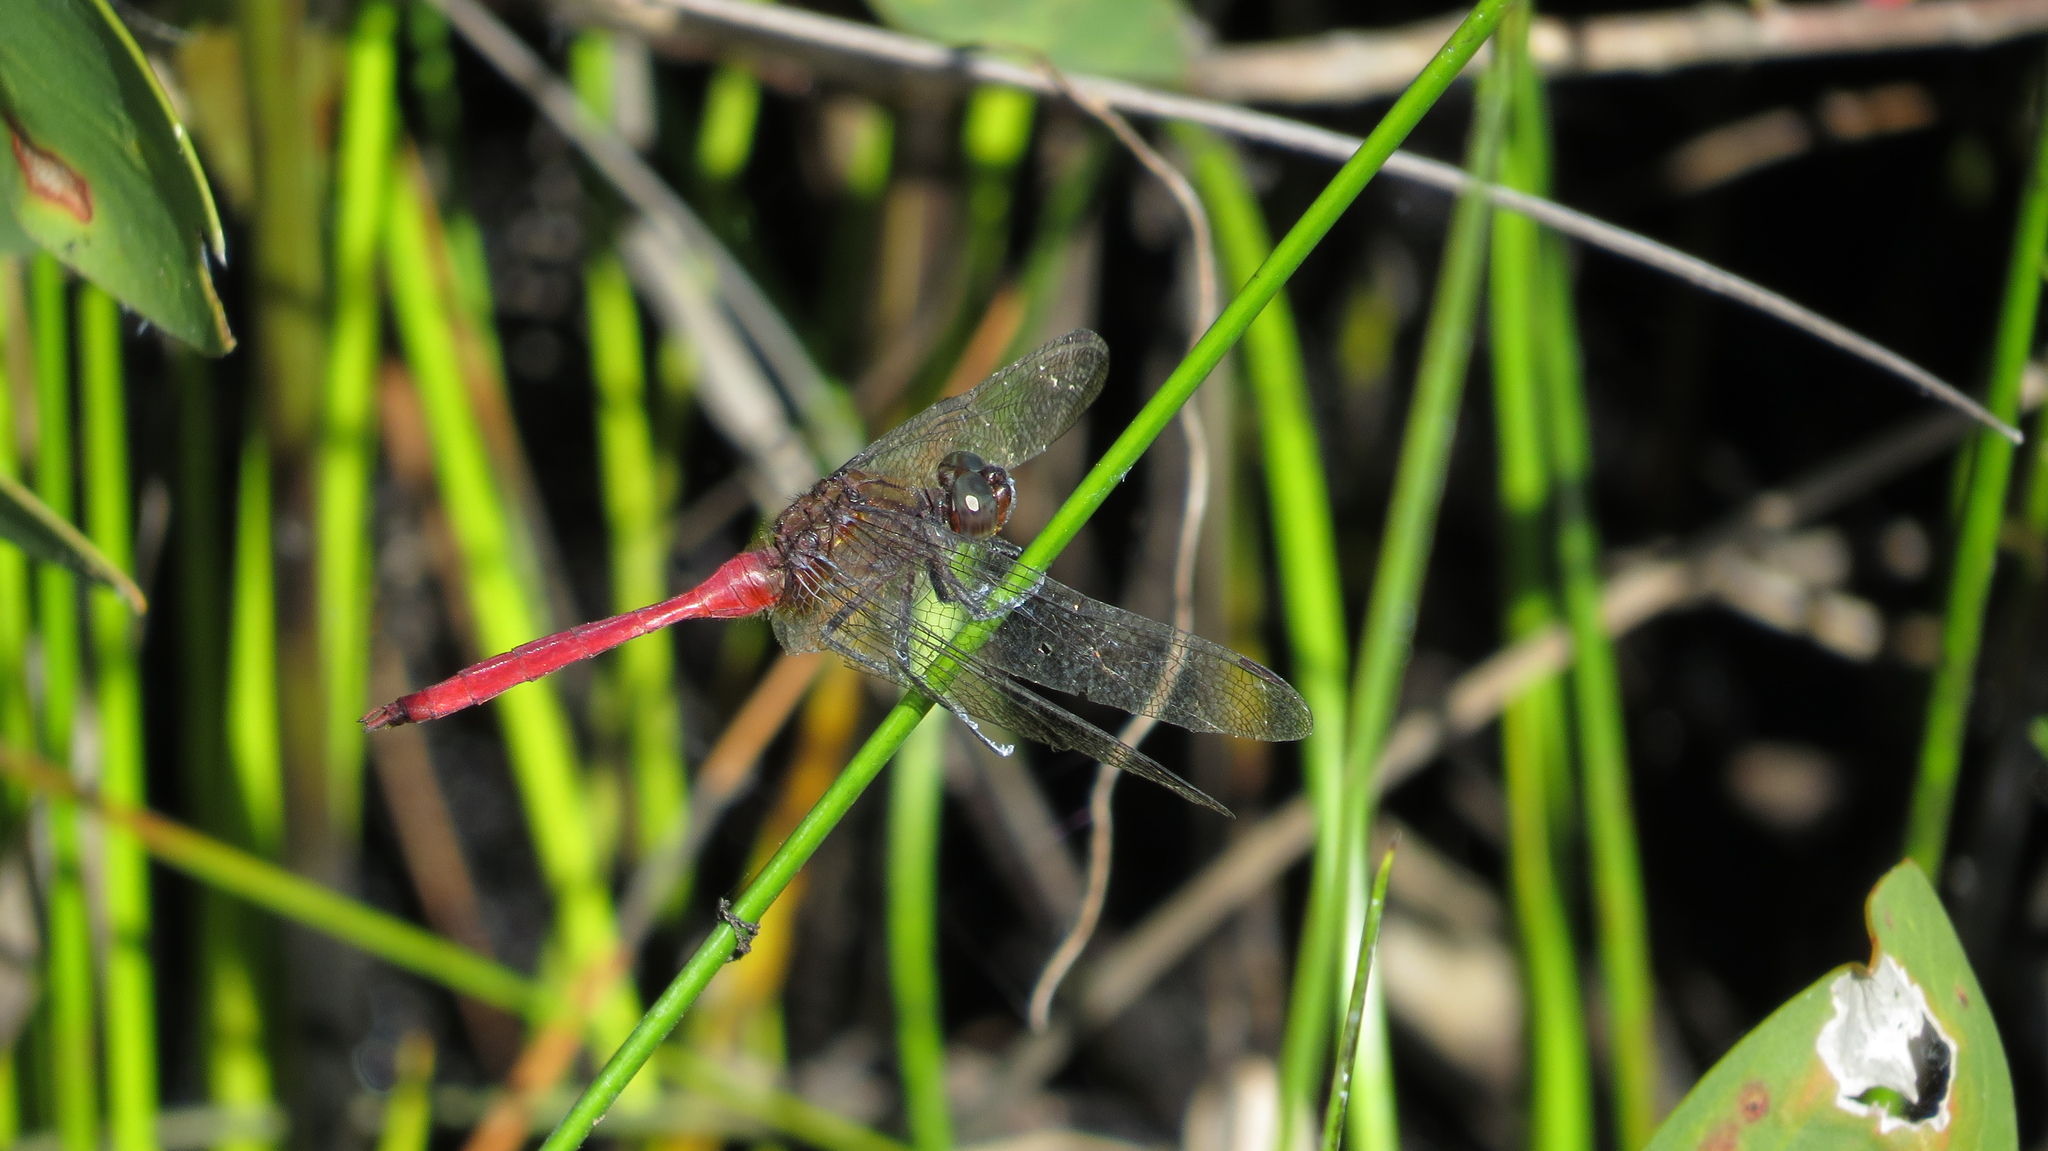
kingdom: Animalia
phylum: Arthropoda
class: Insecta
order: Odonata
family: Libellulidae
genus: Orthetrum
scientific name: Orthetrum villosovittatum
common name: Firery skimmer
